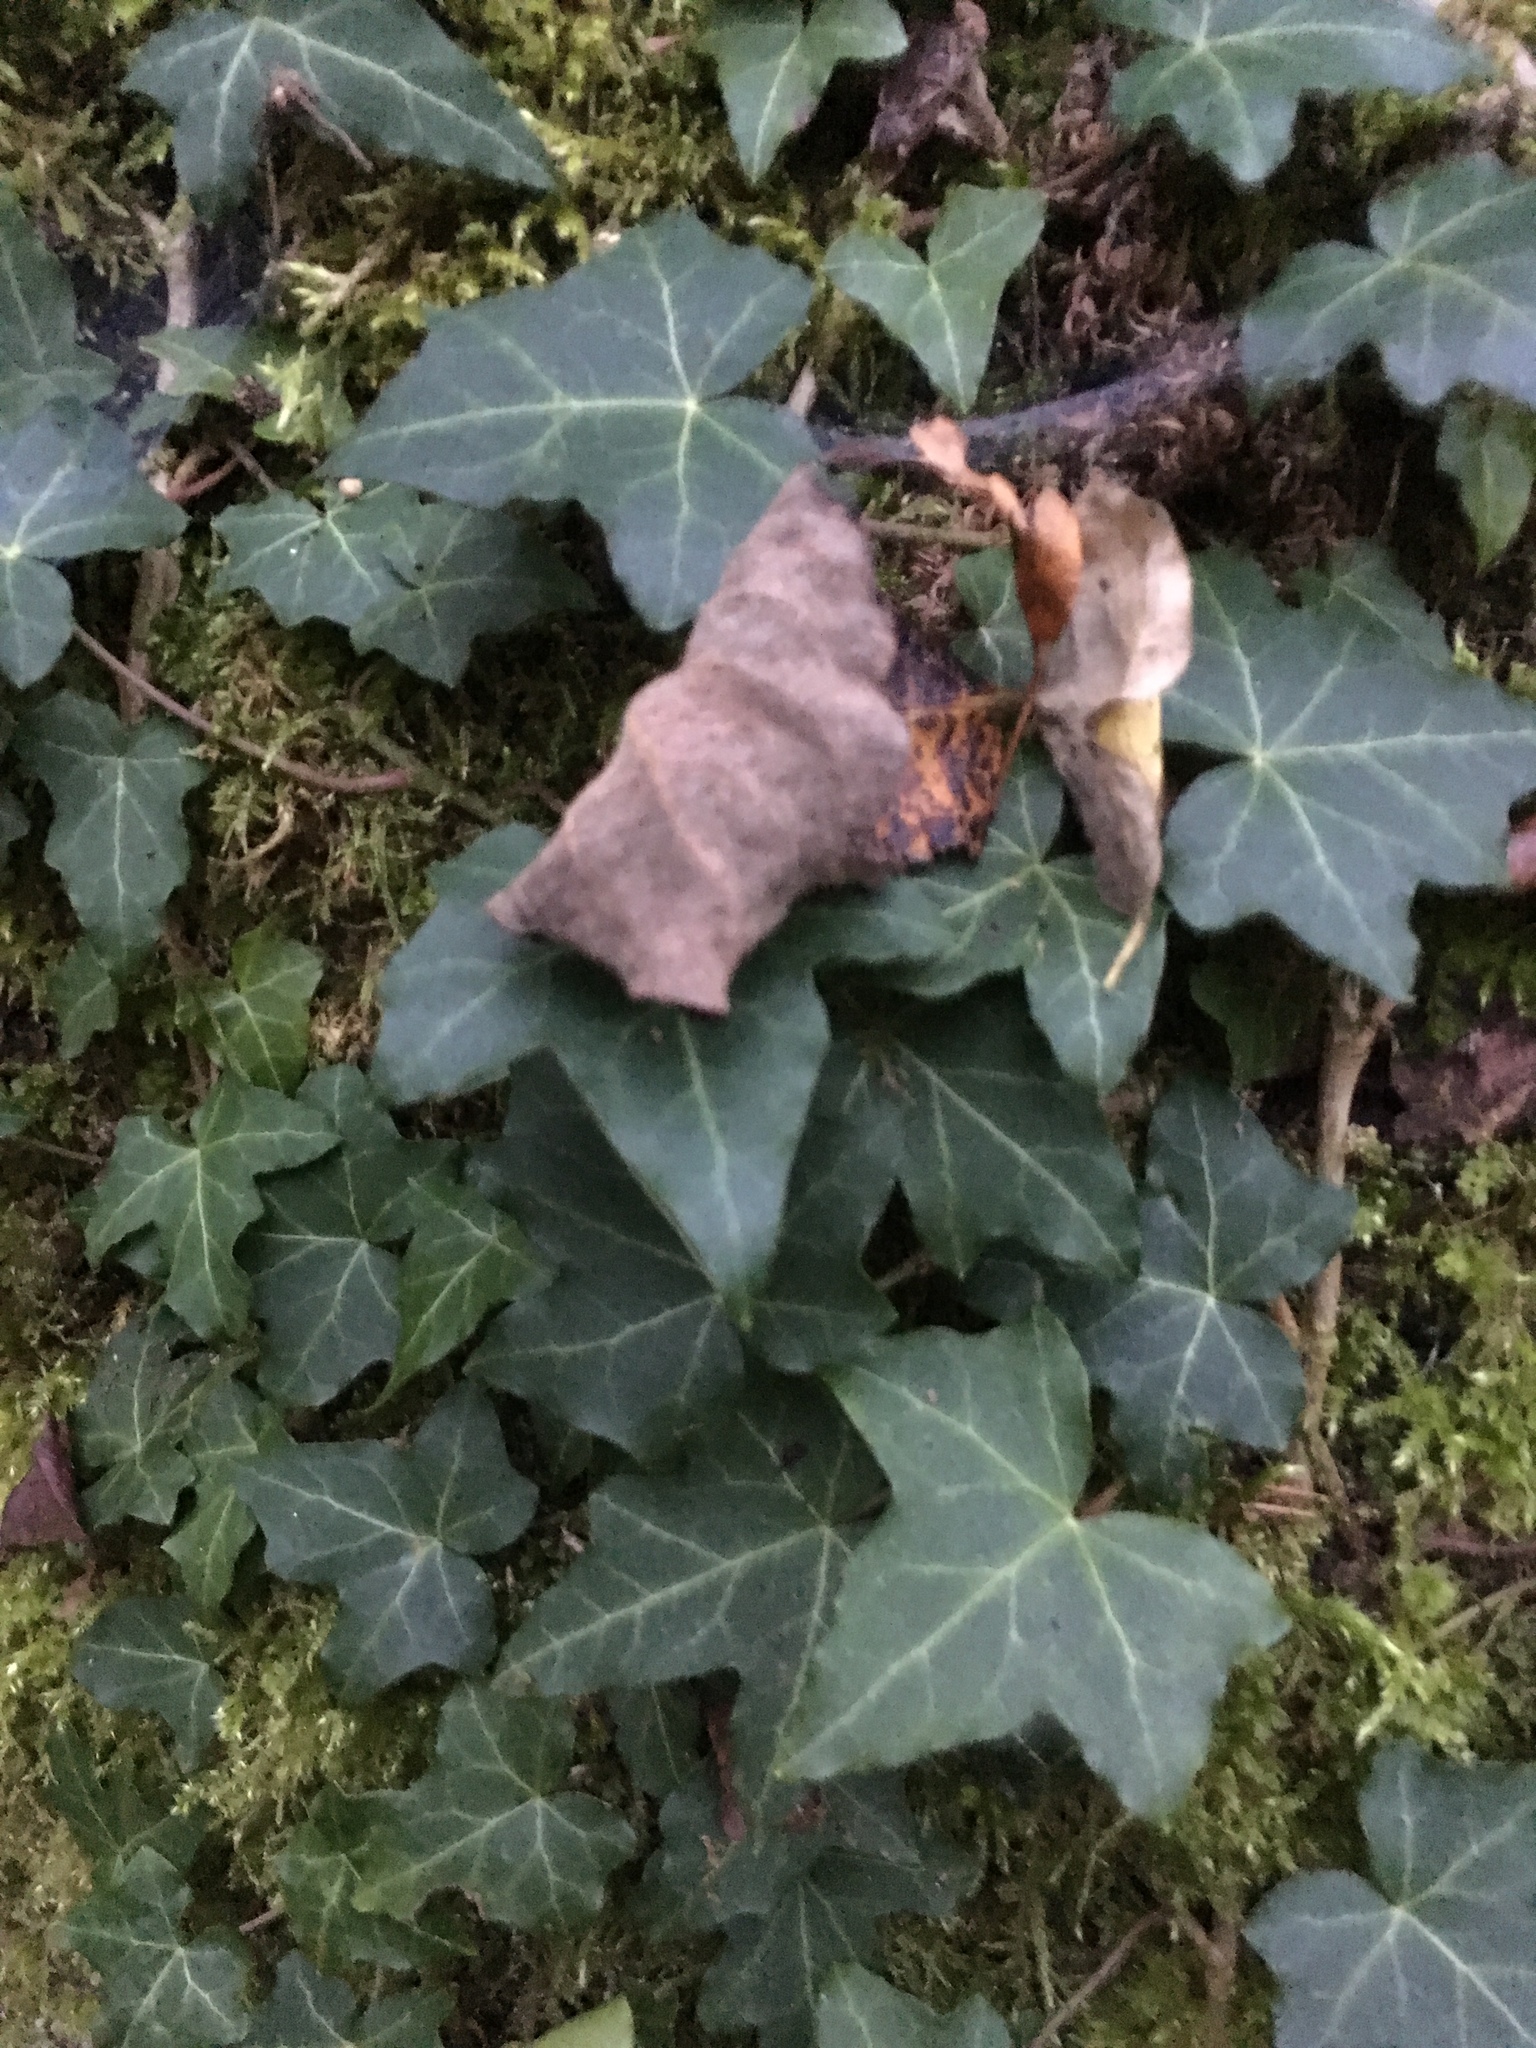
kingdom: Plantae
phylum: Tracheophyta
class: Magnoliopsida
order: Apiales
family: Araliaceae
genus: Hedera
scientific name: Hedera helix
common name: Ivy
